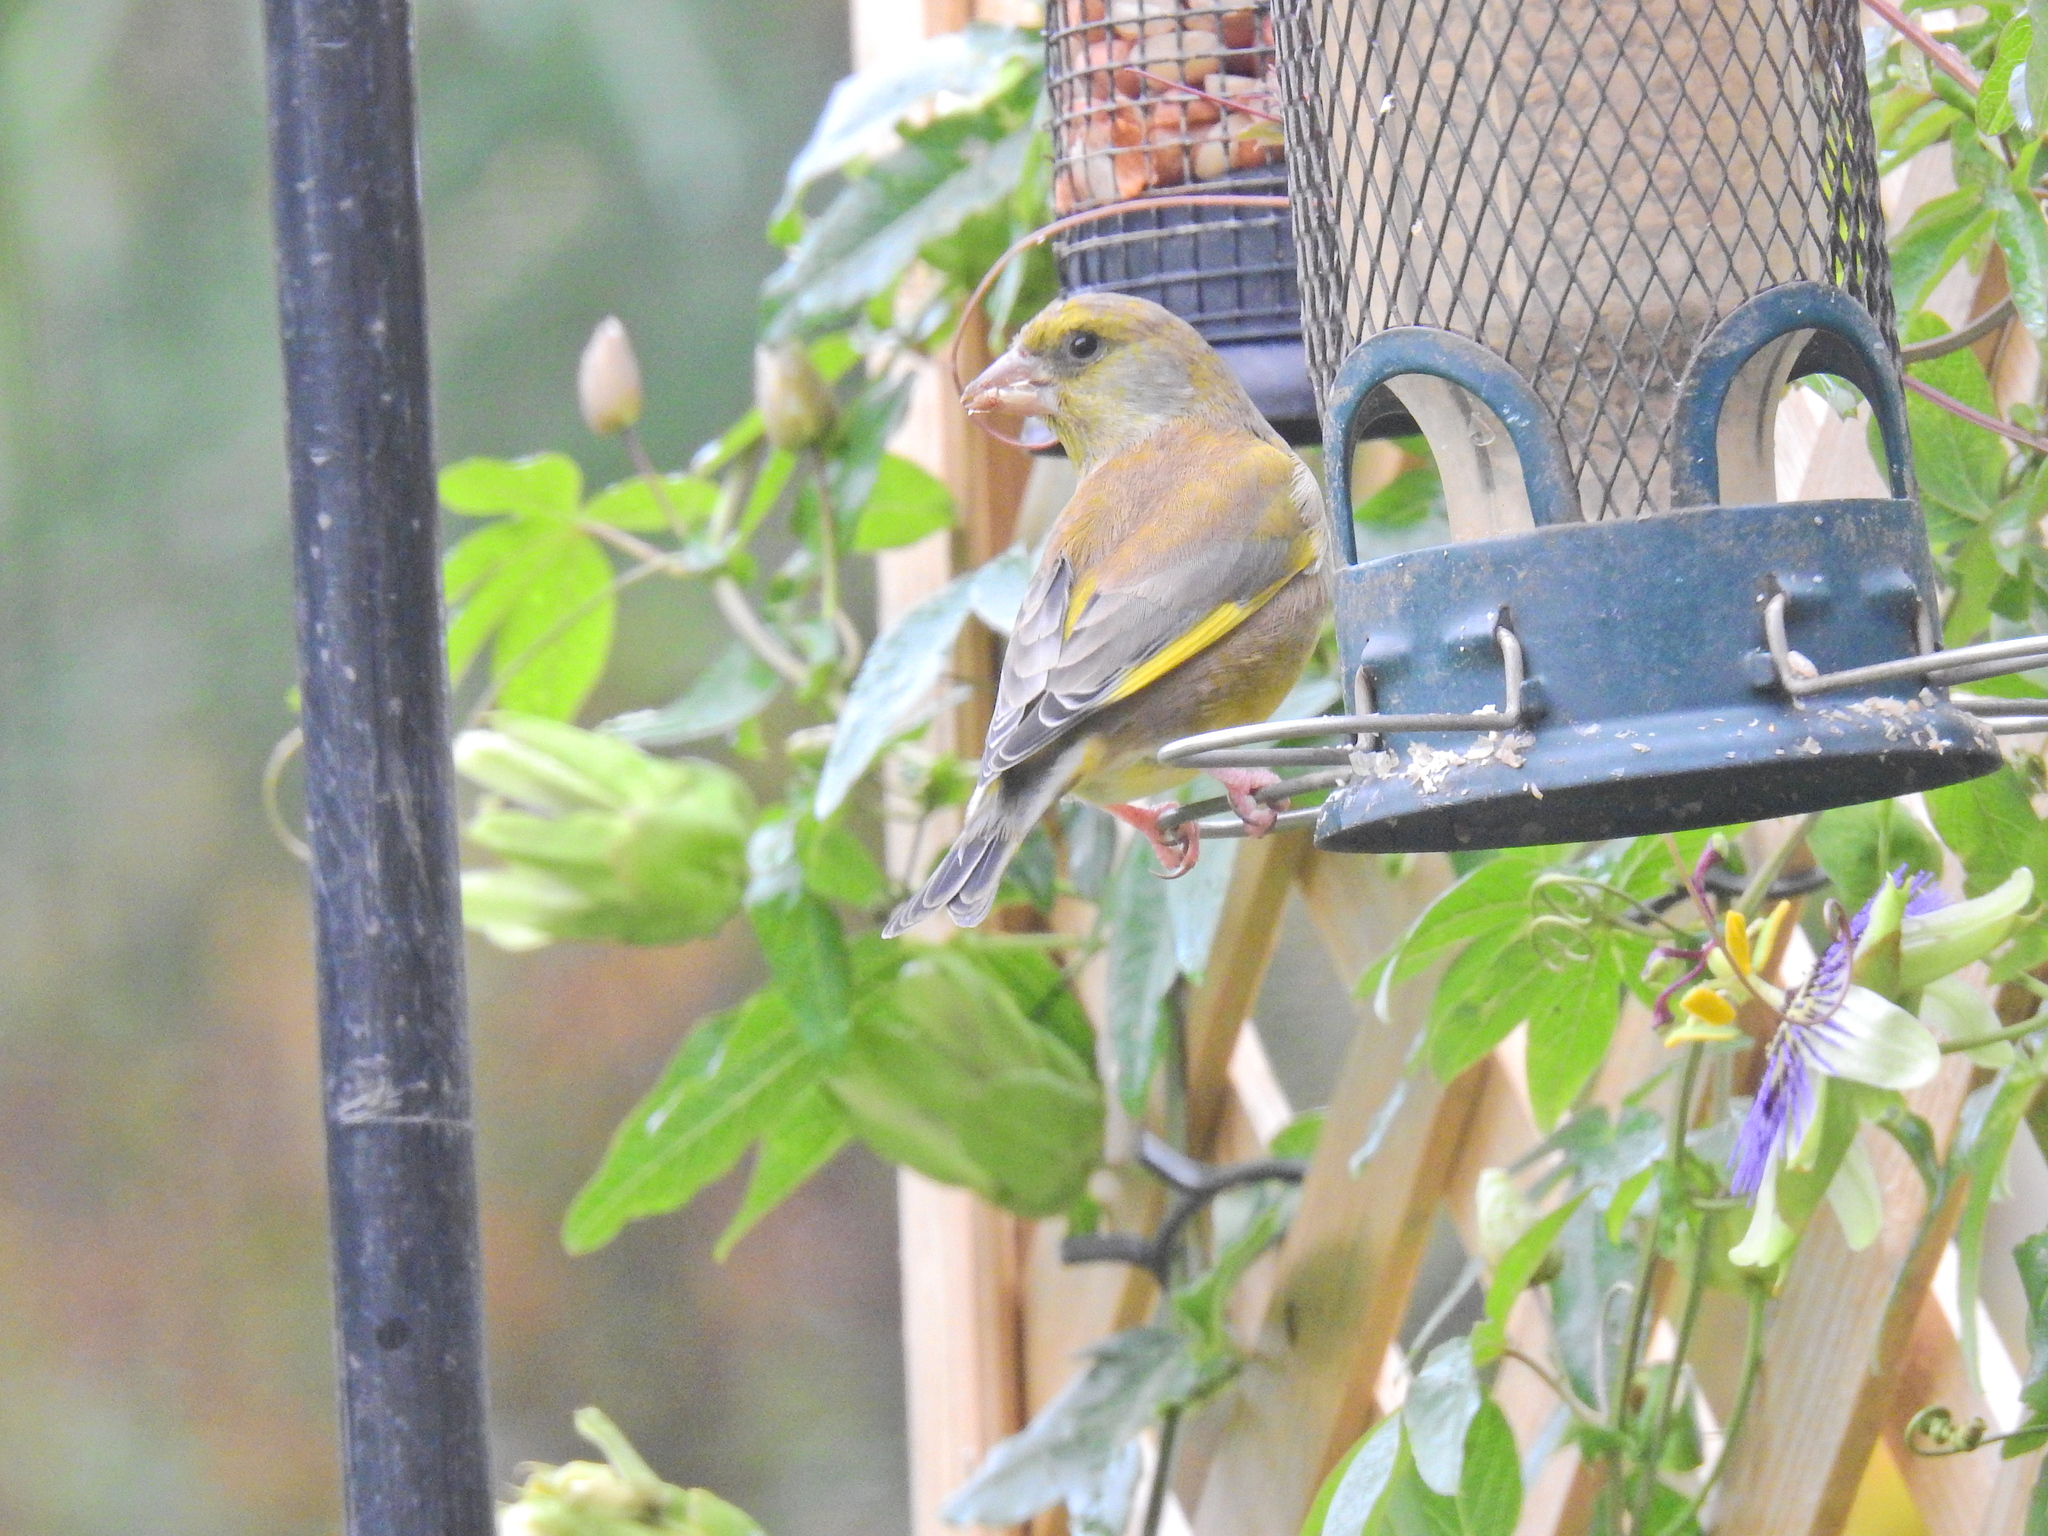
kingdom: Plantae
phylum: Tracheophyta
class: Liliopsida
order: Poales
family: Poaceae
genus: Chloris
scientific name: Chloris chloris
